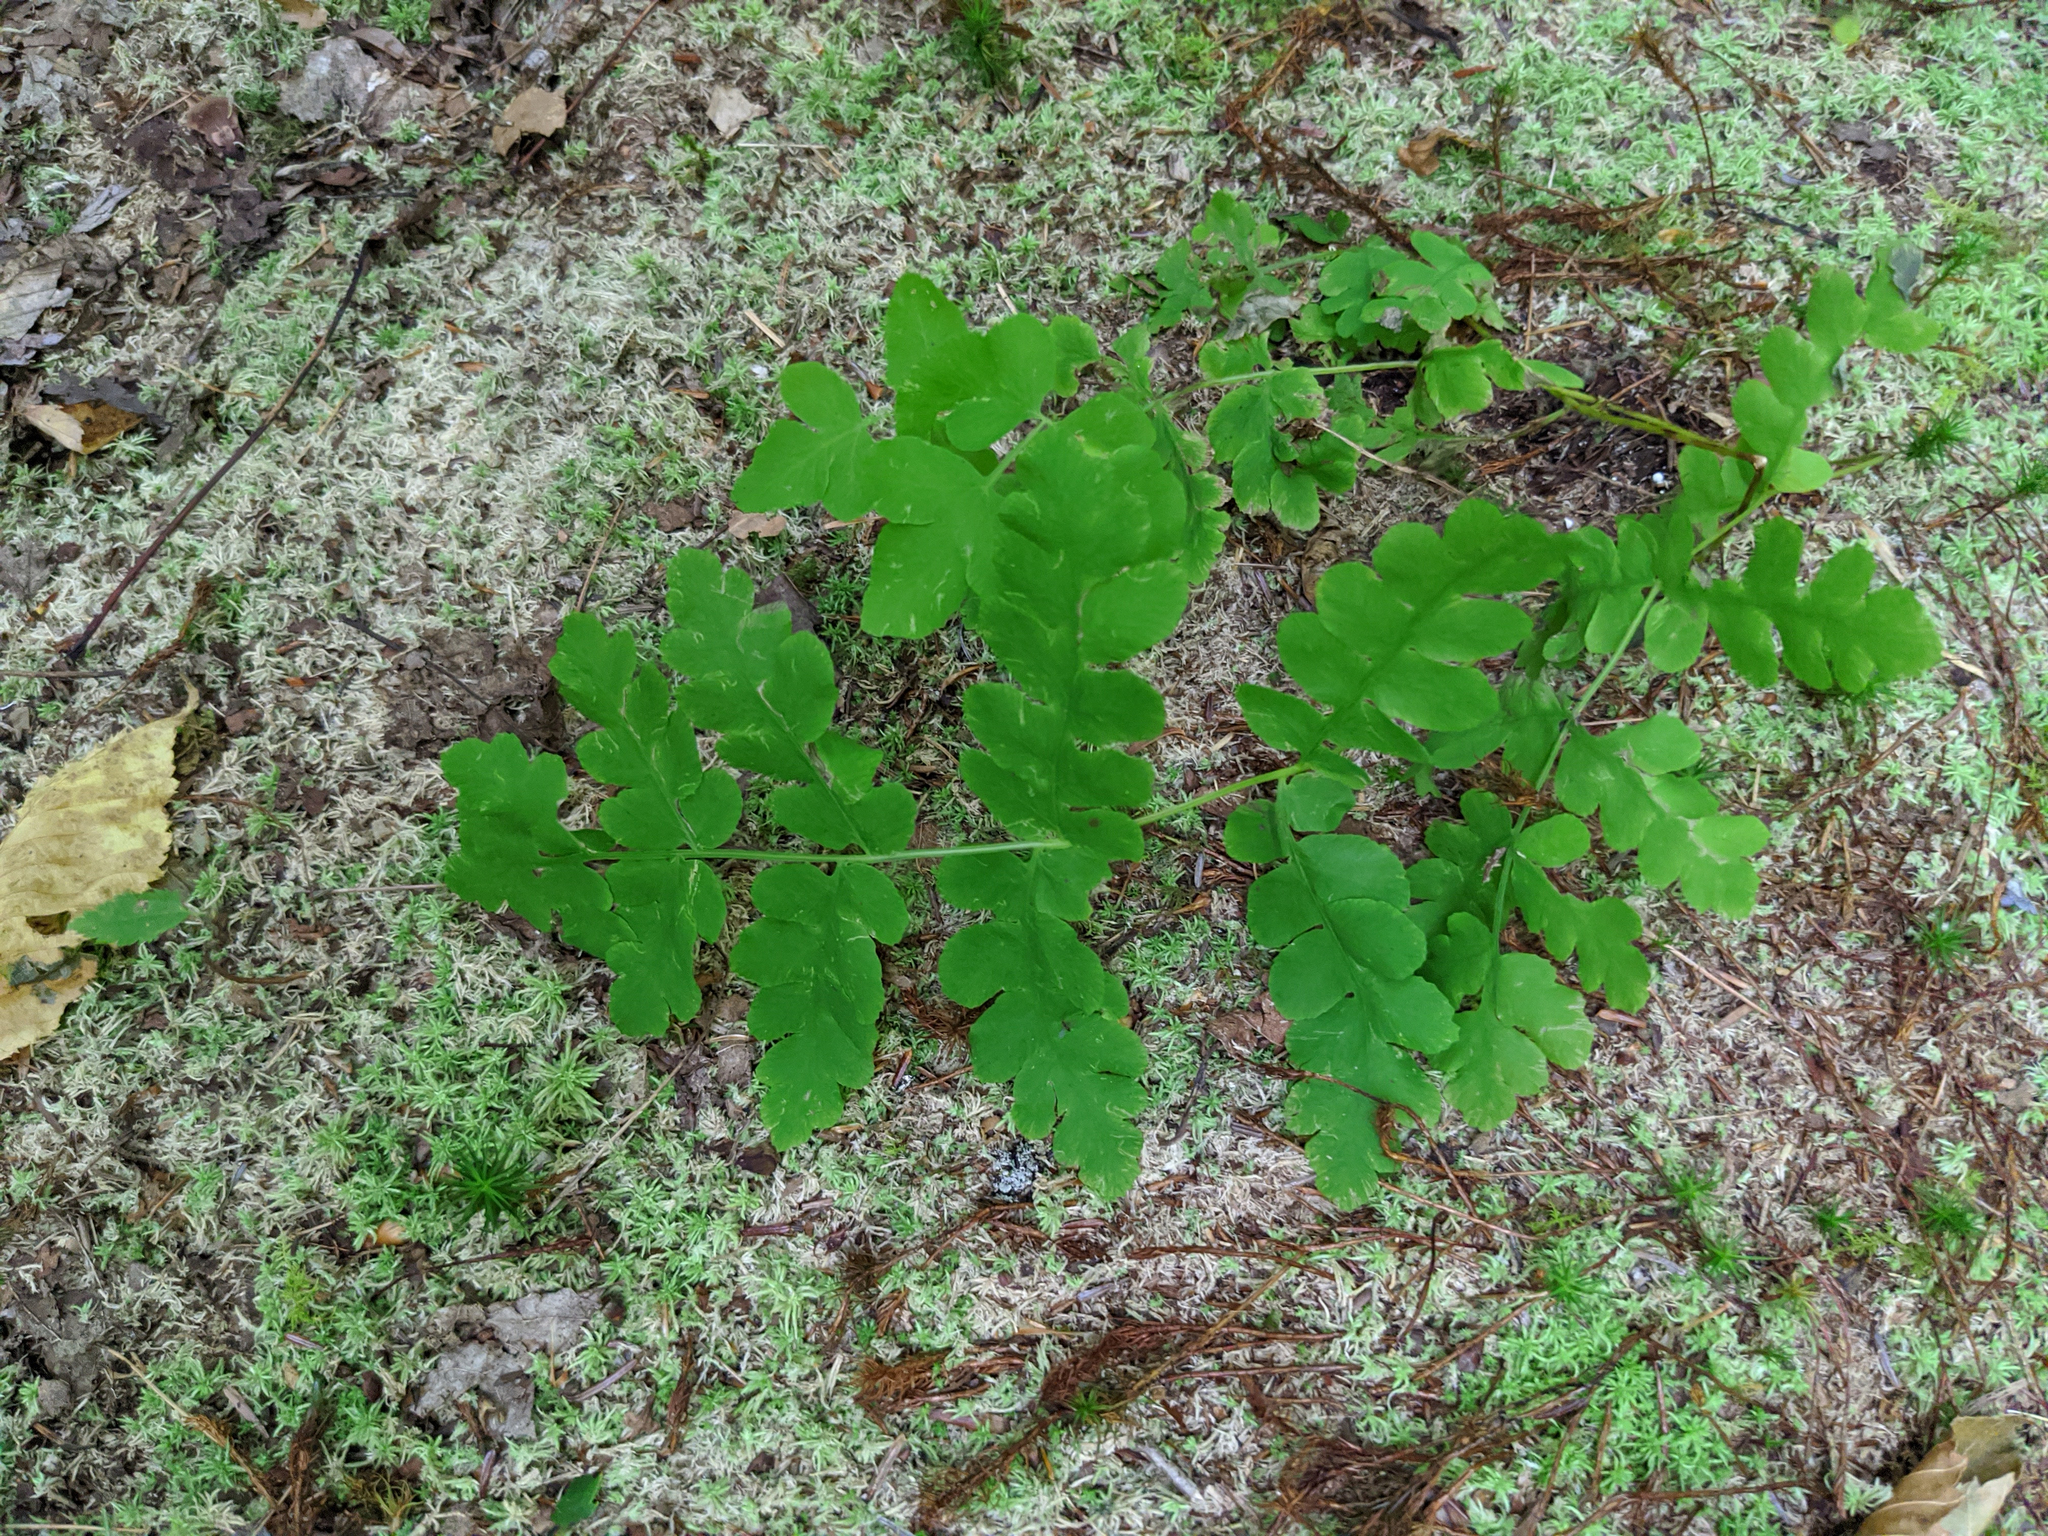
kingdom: Plantae
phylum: Tracheophyta
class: Polypodiopsida
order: Osmundales
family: Osmundaceae
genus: Claytosmunda
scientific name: Claytosmunda claytoniana
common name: Clayton's fern
